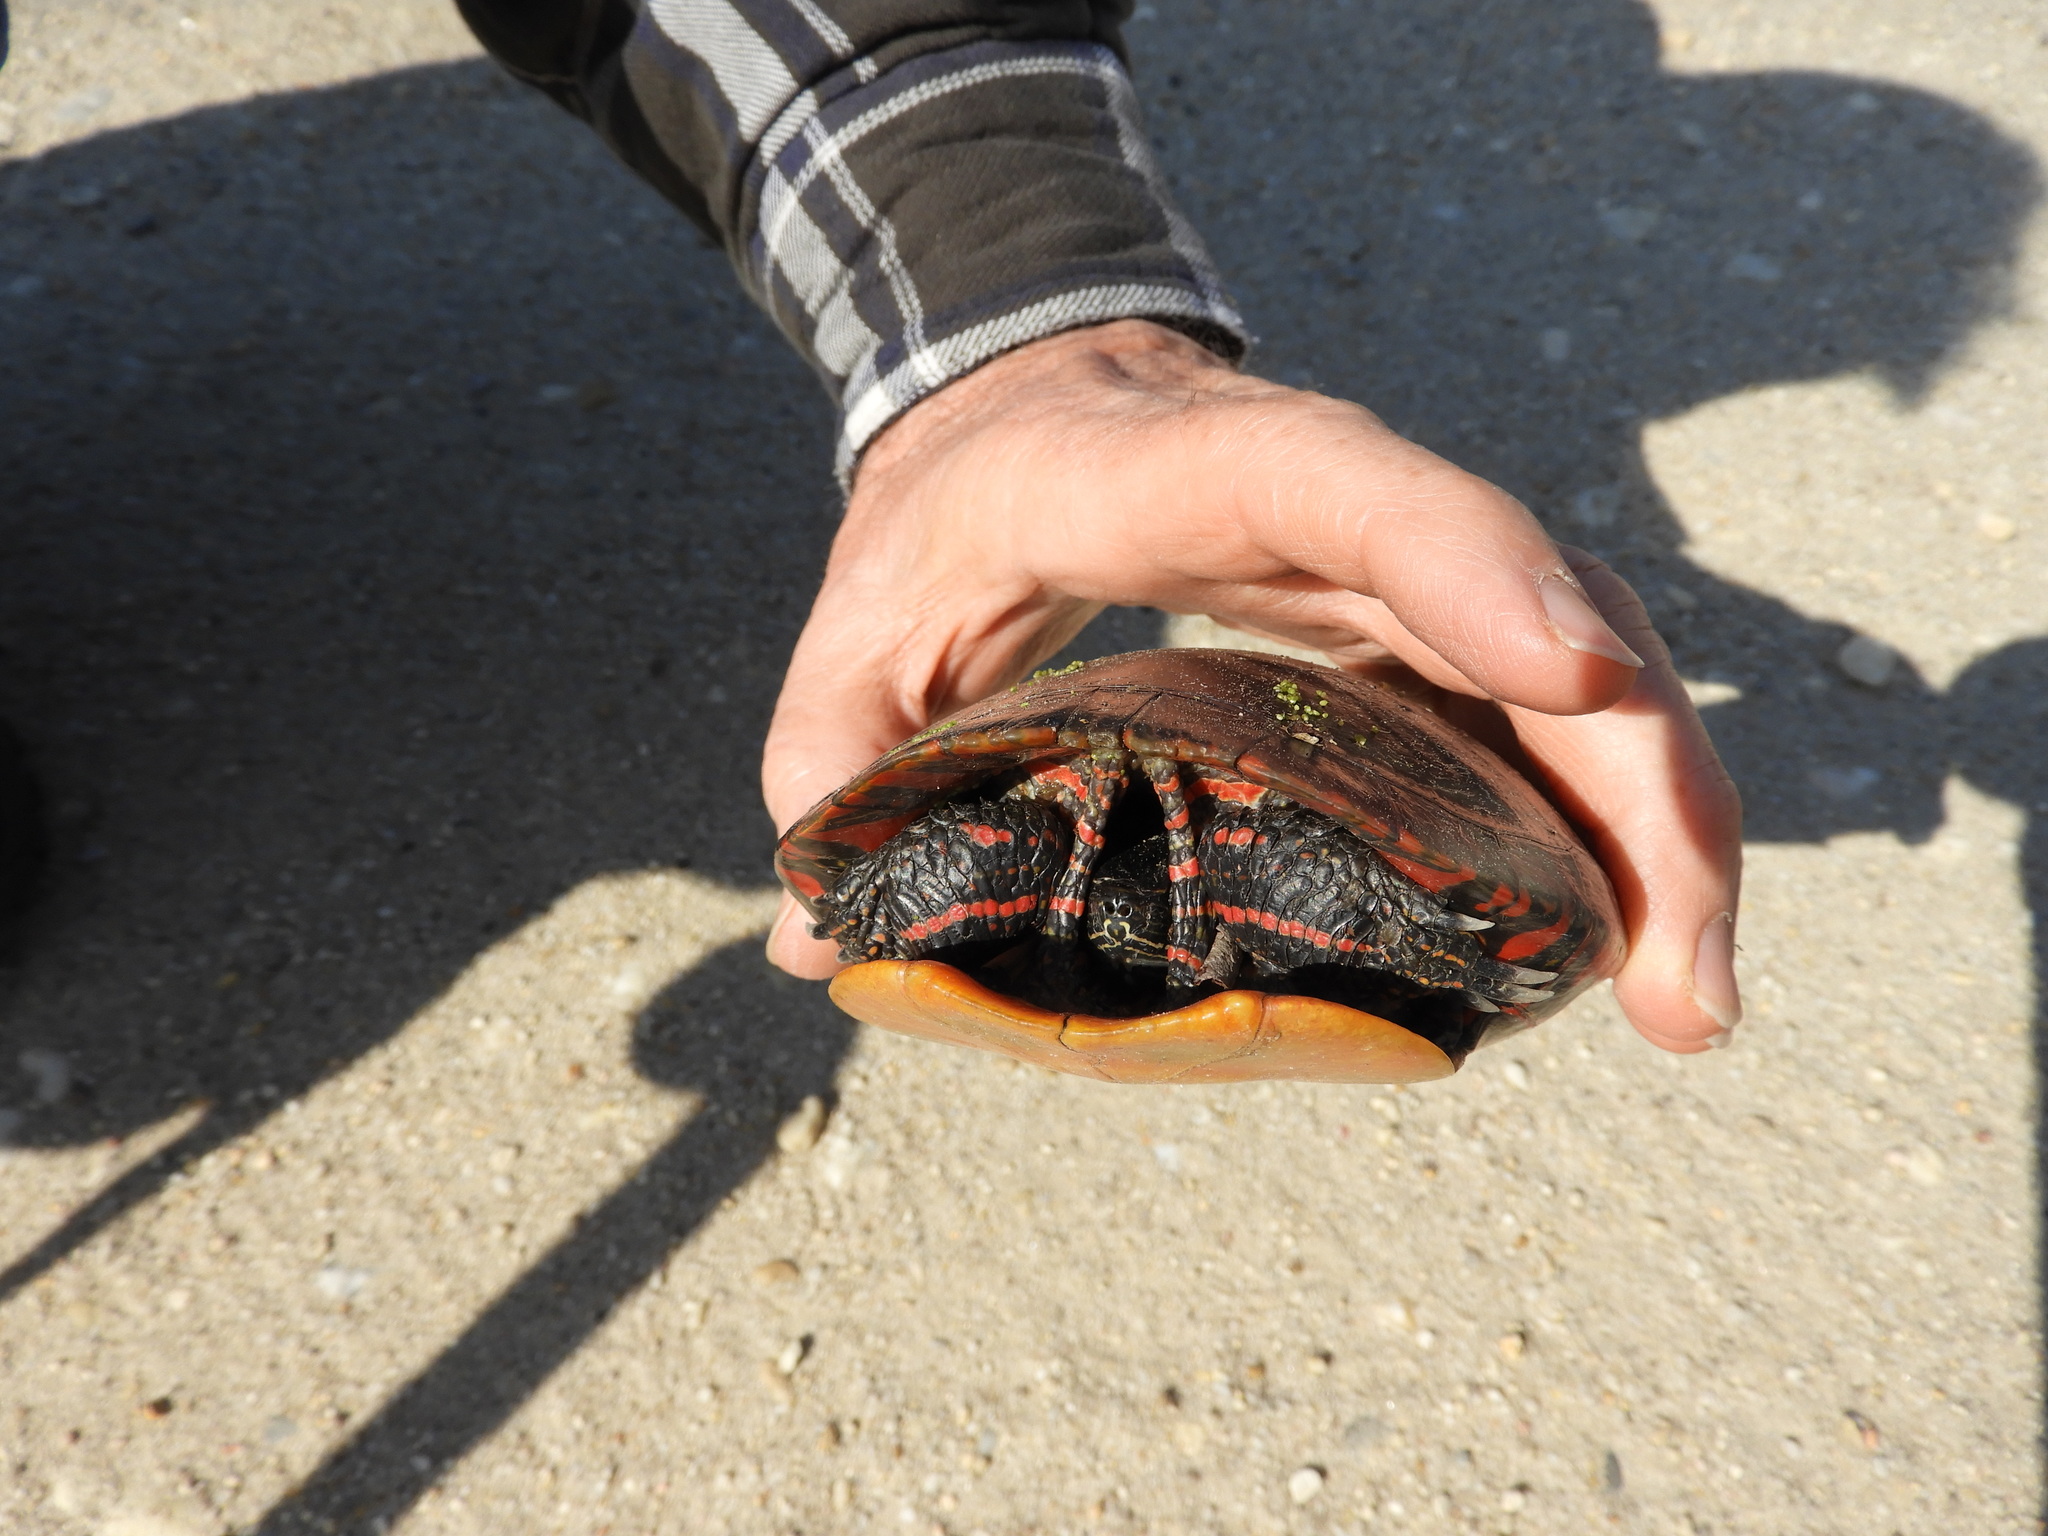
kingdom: Animalia
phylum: Chordata
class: Testudines
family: Emydidae
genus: Chrysemys
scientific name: Chrysemys picta
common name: Painted turtle
